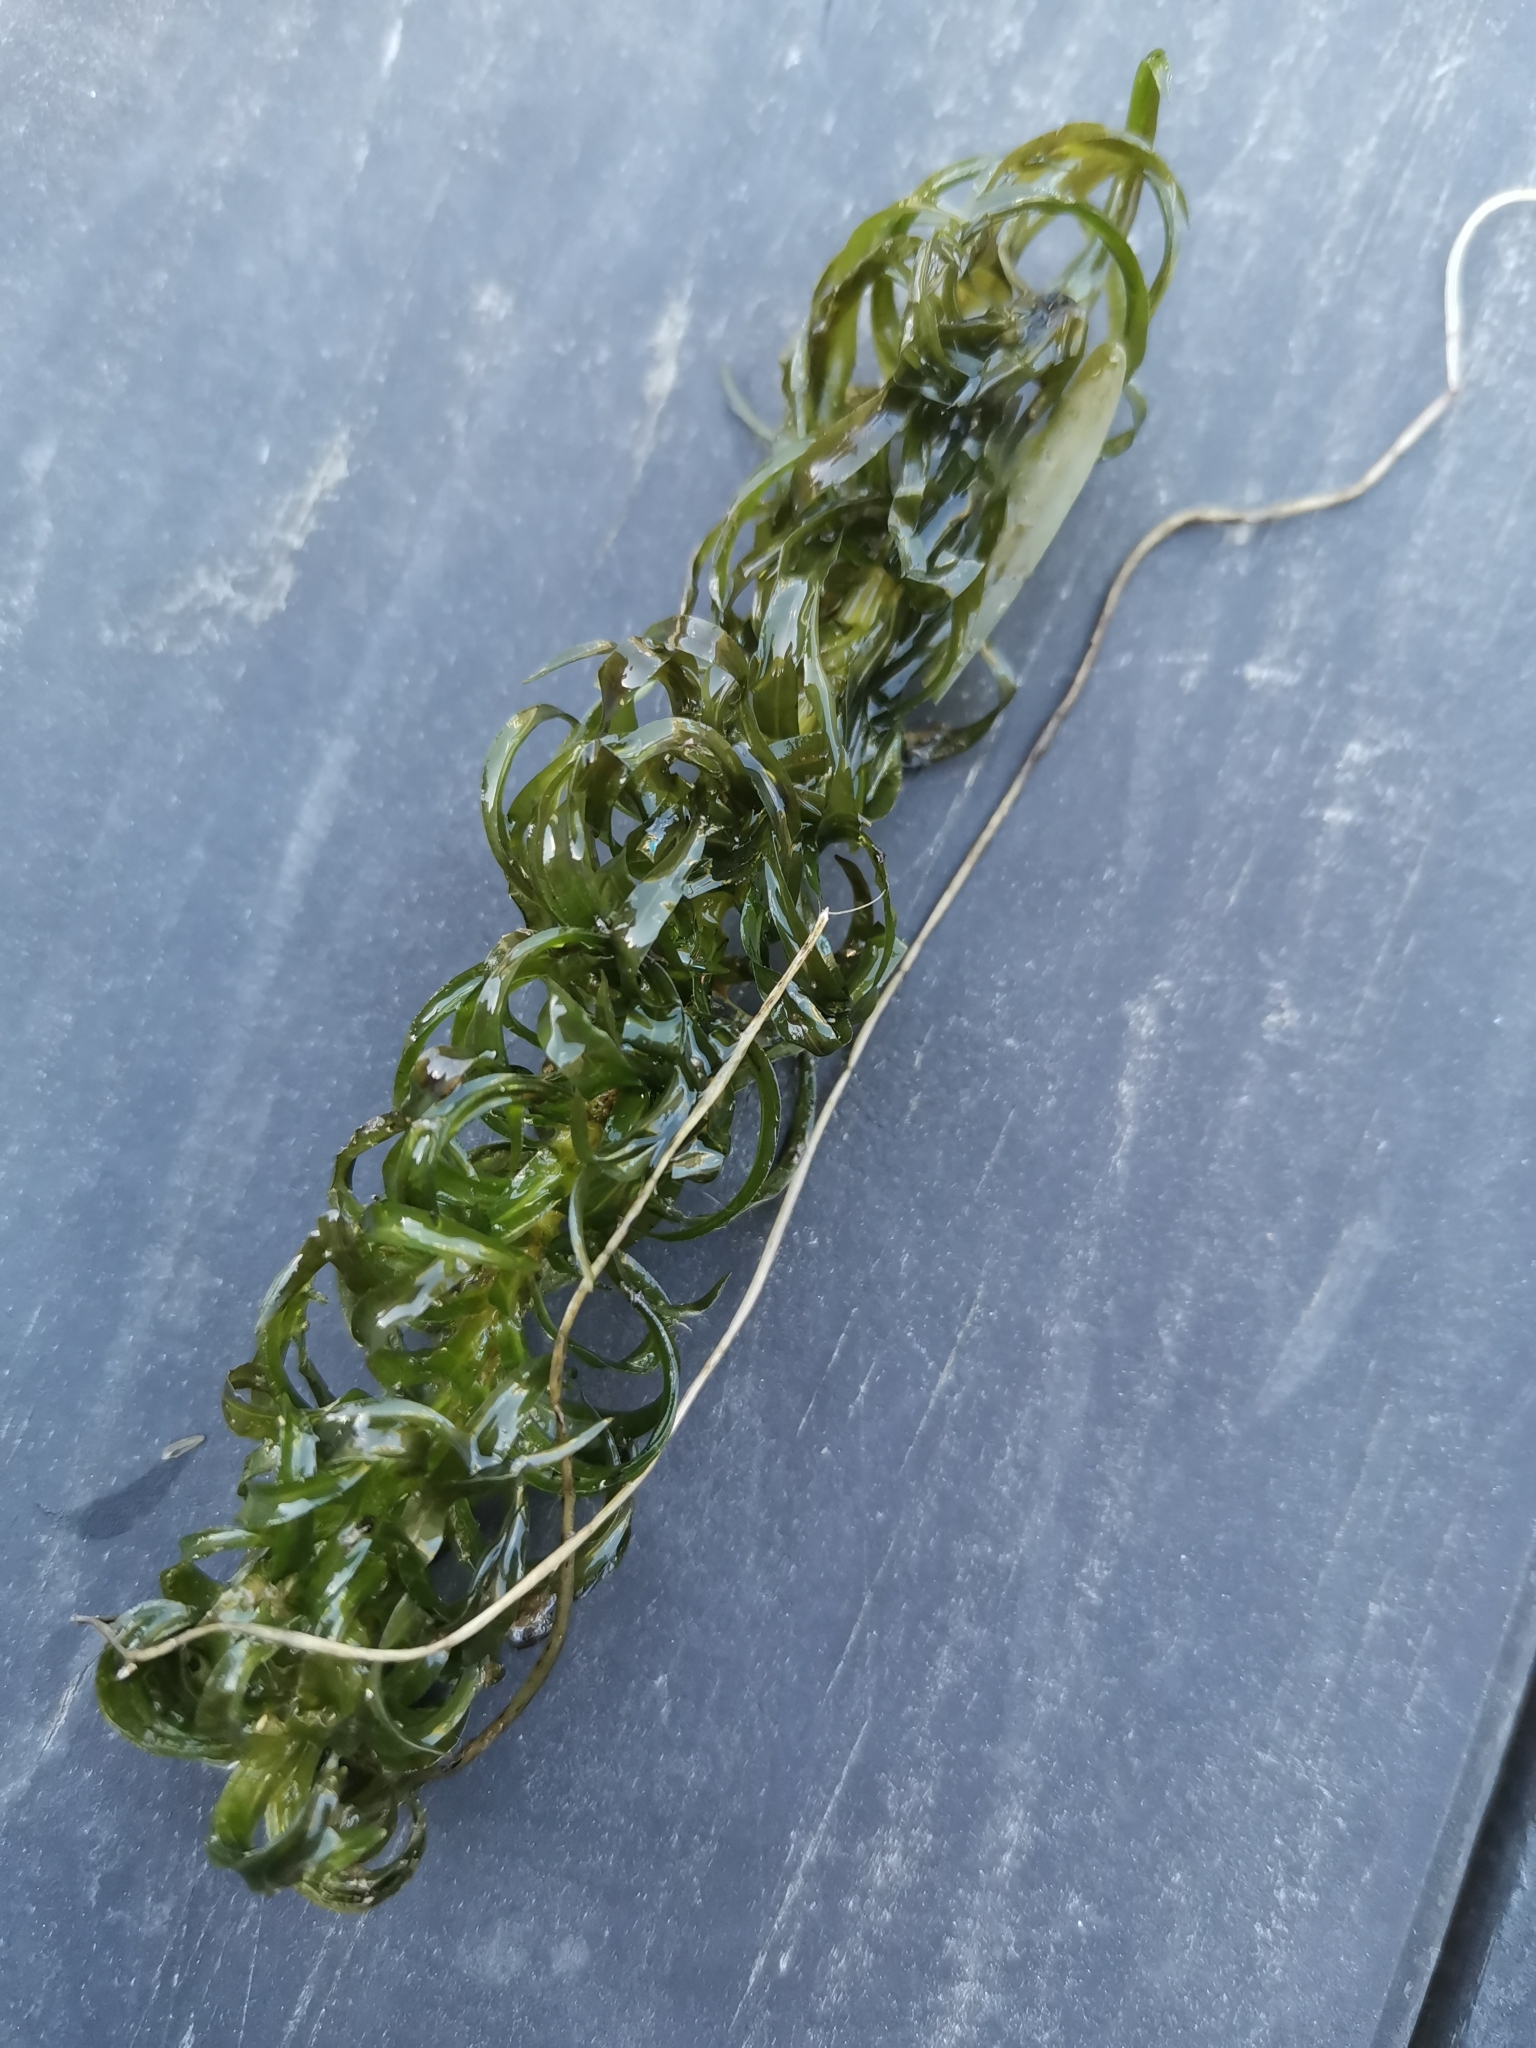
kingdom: Plantae
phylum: Tracheophyta
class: Liliopsida
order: Alismatales
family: Hydrocharitaceae
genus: Lagarosiphon
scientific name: Lagarosiphon major
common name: Curly waterweed
